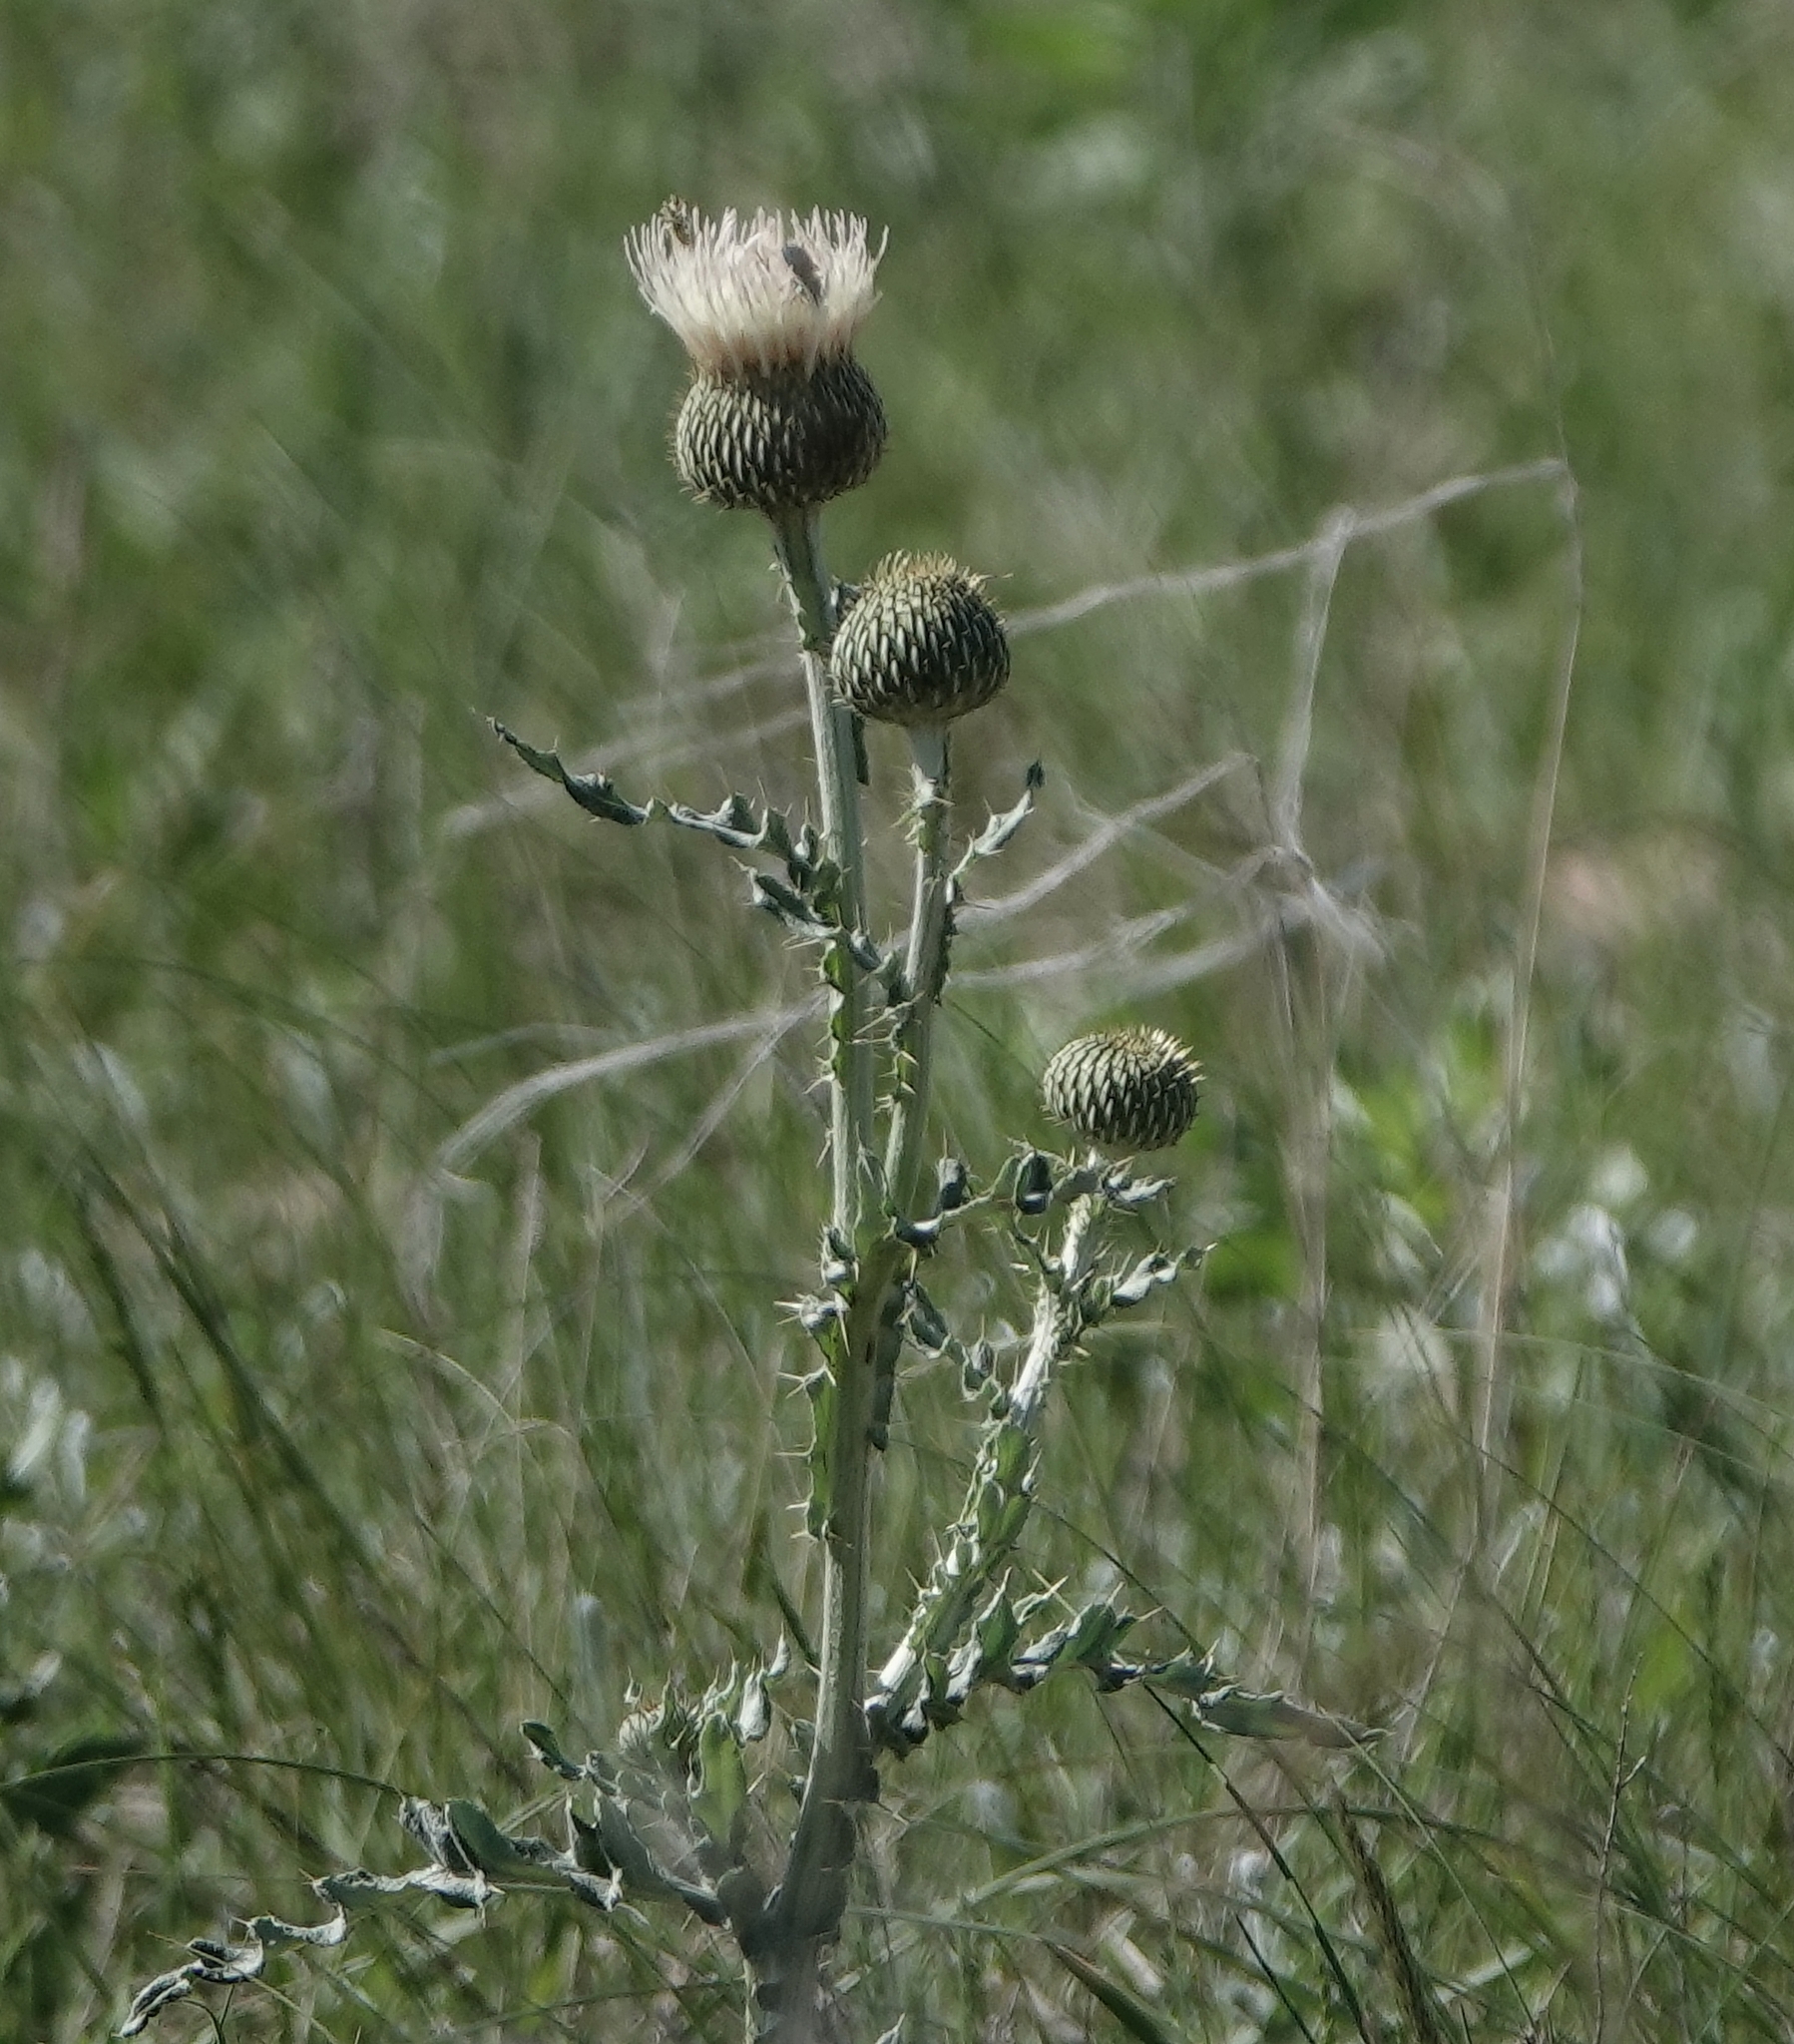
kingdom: Plantae
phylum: Tracheophyta
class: Magnoliopsida
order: Asterales
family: Asteraceae
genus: Cirsium
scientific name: Cirsium canescens
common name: Prairie thistle
